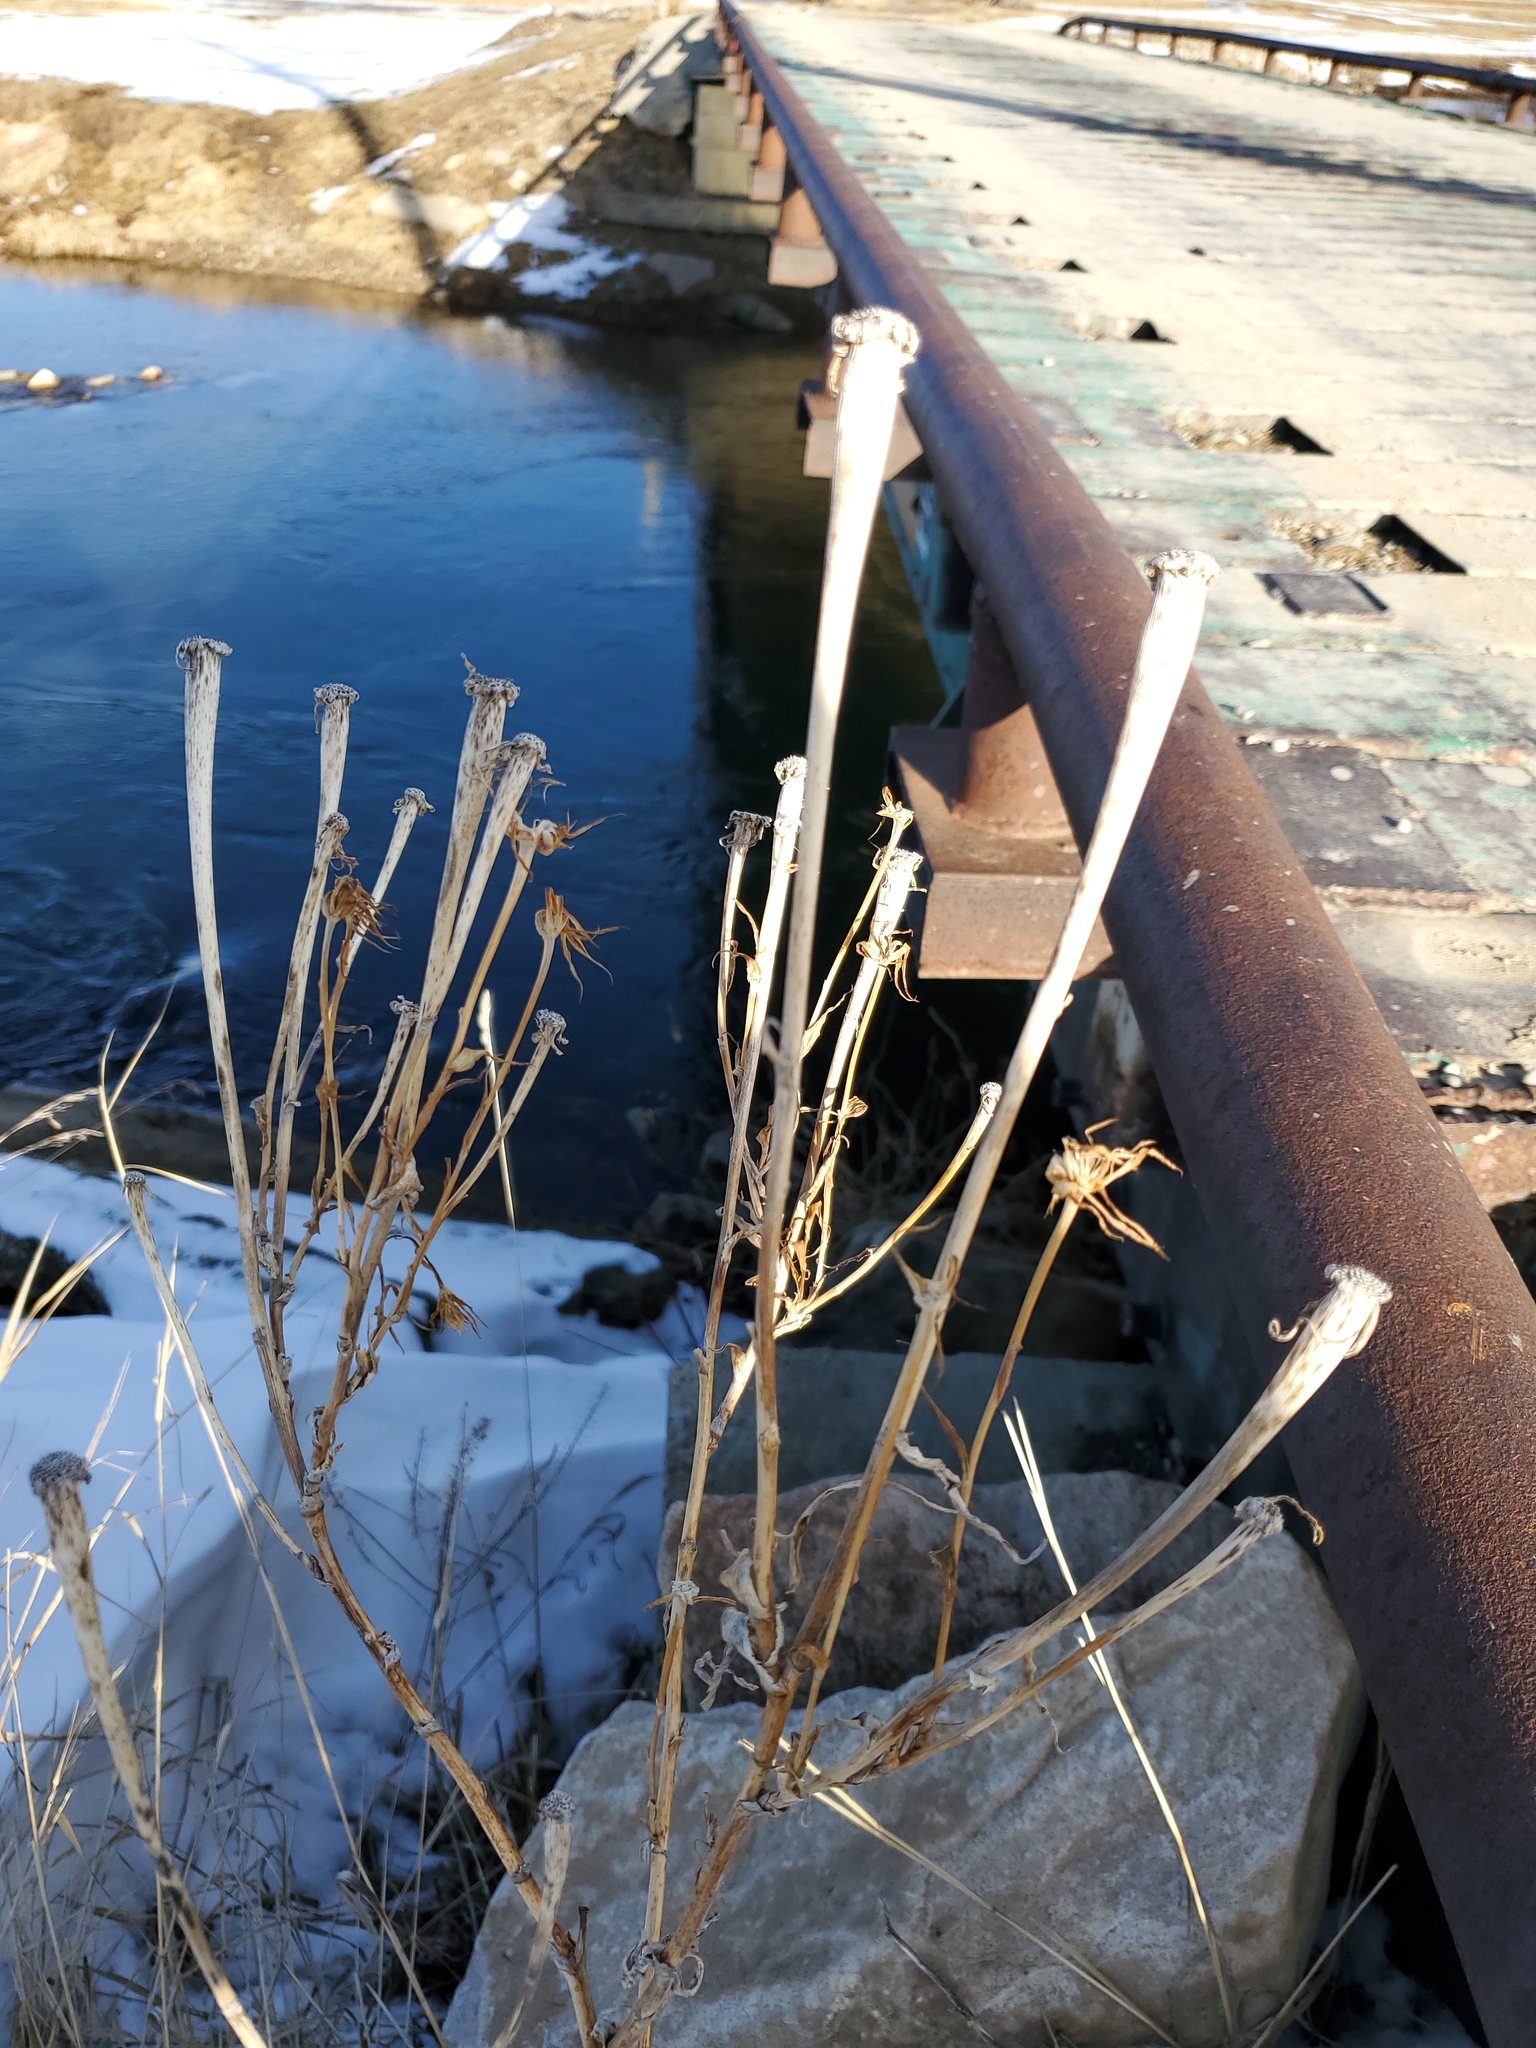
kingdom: Plantae
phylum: Tracheophyta
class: Magnoliopsida
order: Asterales
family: Asteraceae
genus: Tragopogon
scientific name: Tragopogon dubius
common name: Yellow salsify
